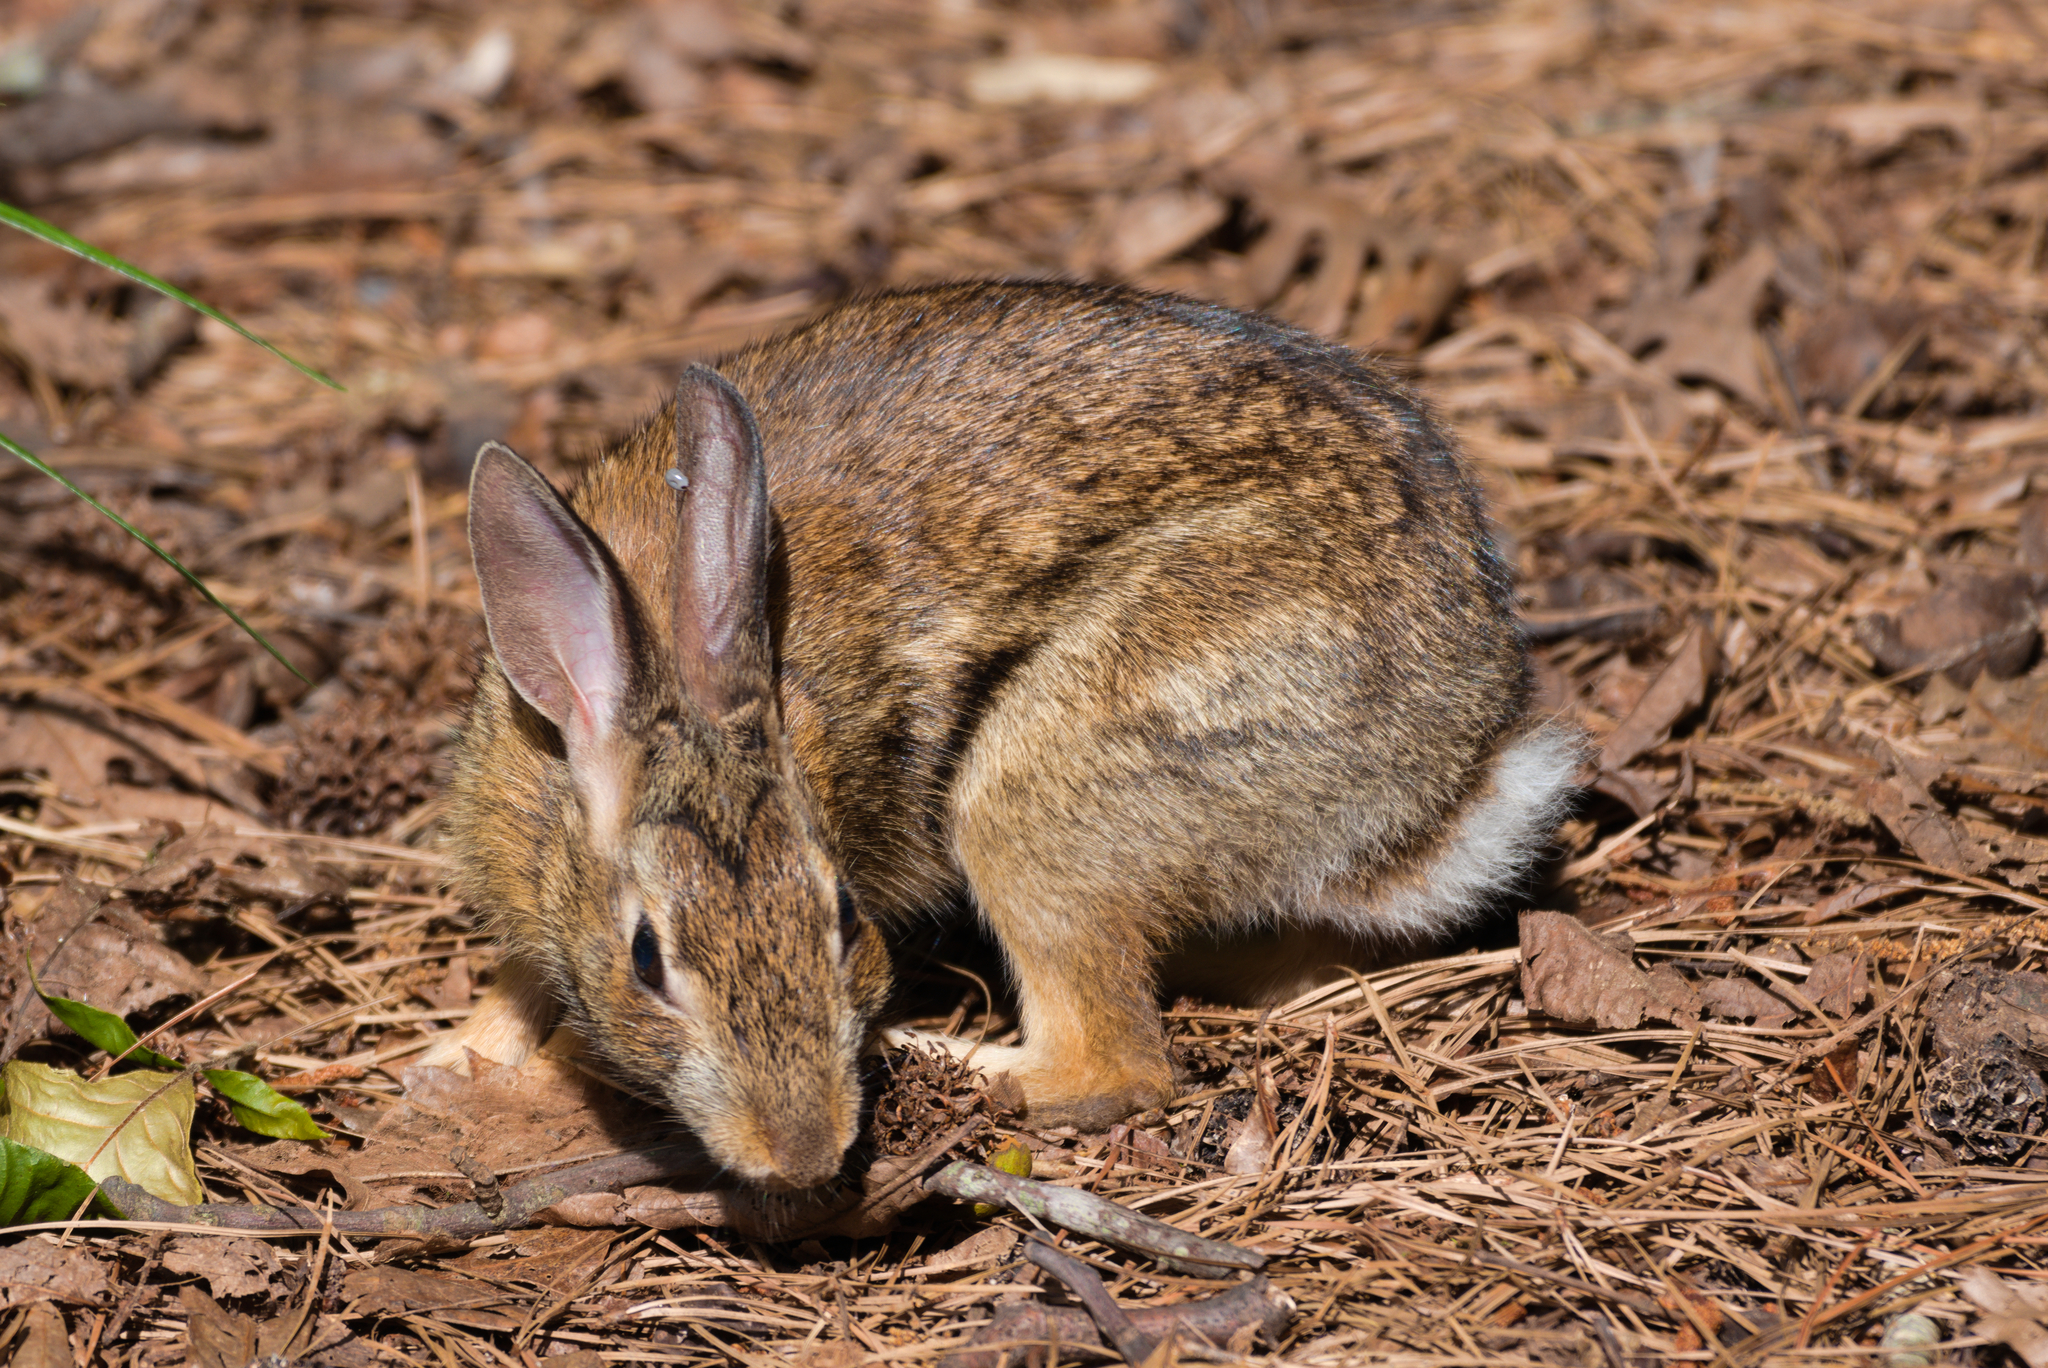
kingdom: Animalia
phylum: Chordata
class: Mammalia
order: Lagomorpha
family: Leporidae
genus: Sylvilagus
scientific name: Sylvilagus floridanus
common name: Eastern cottontail
